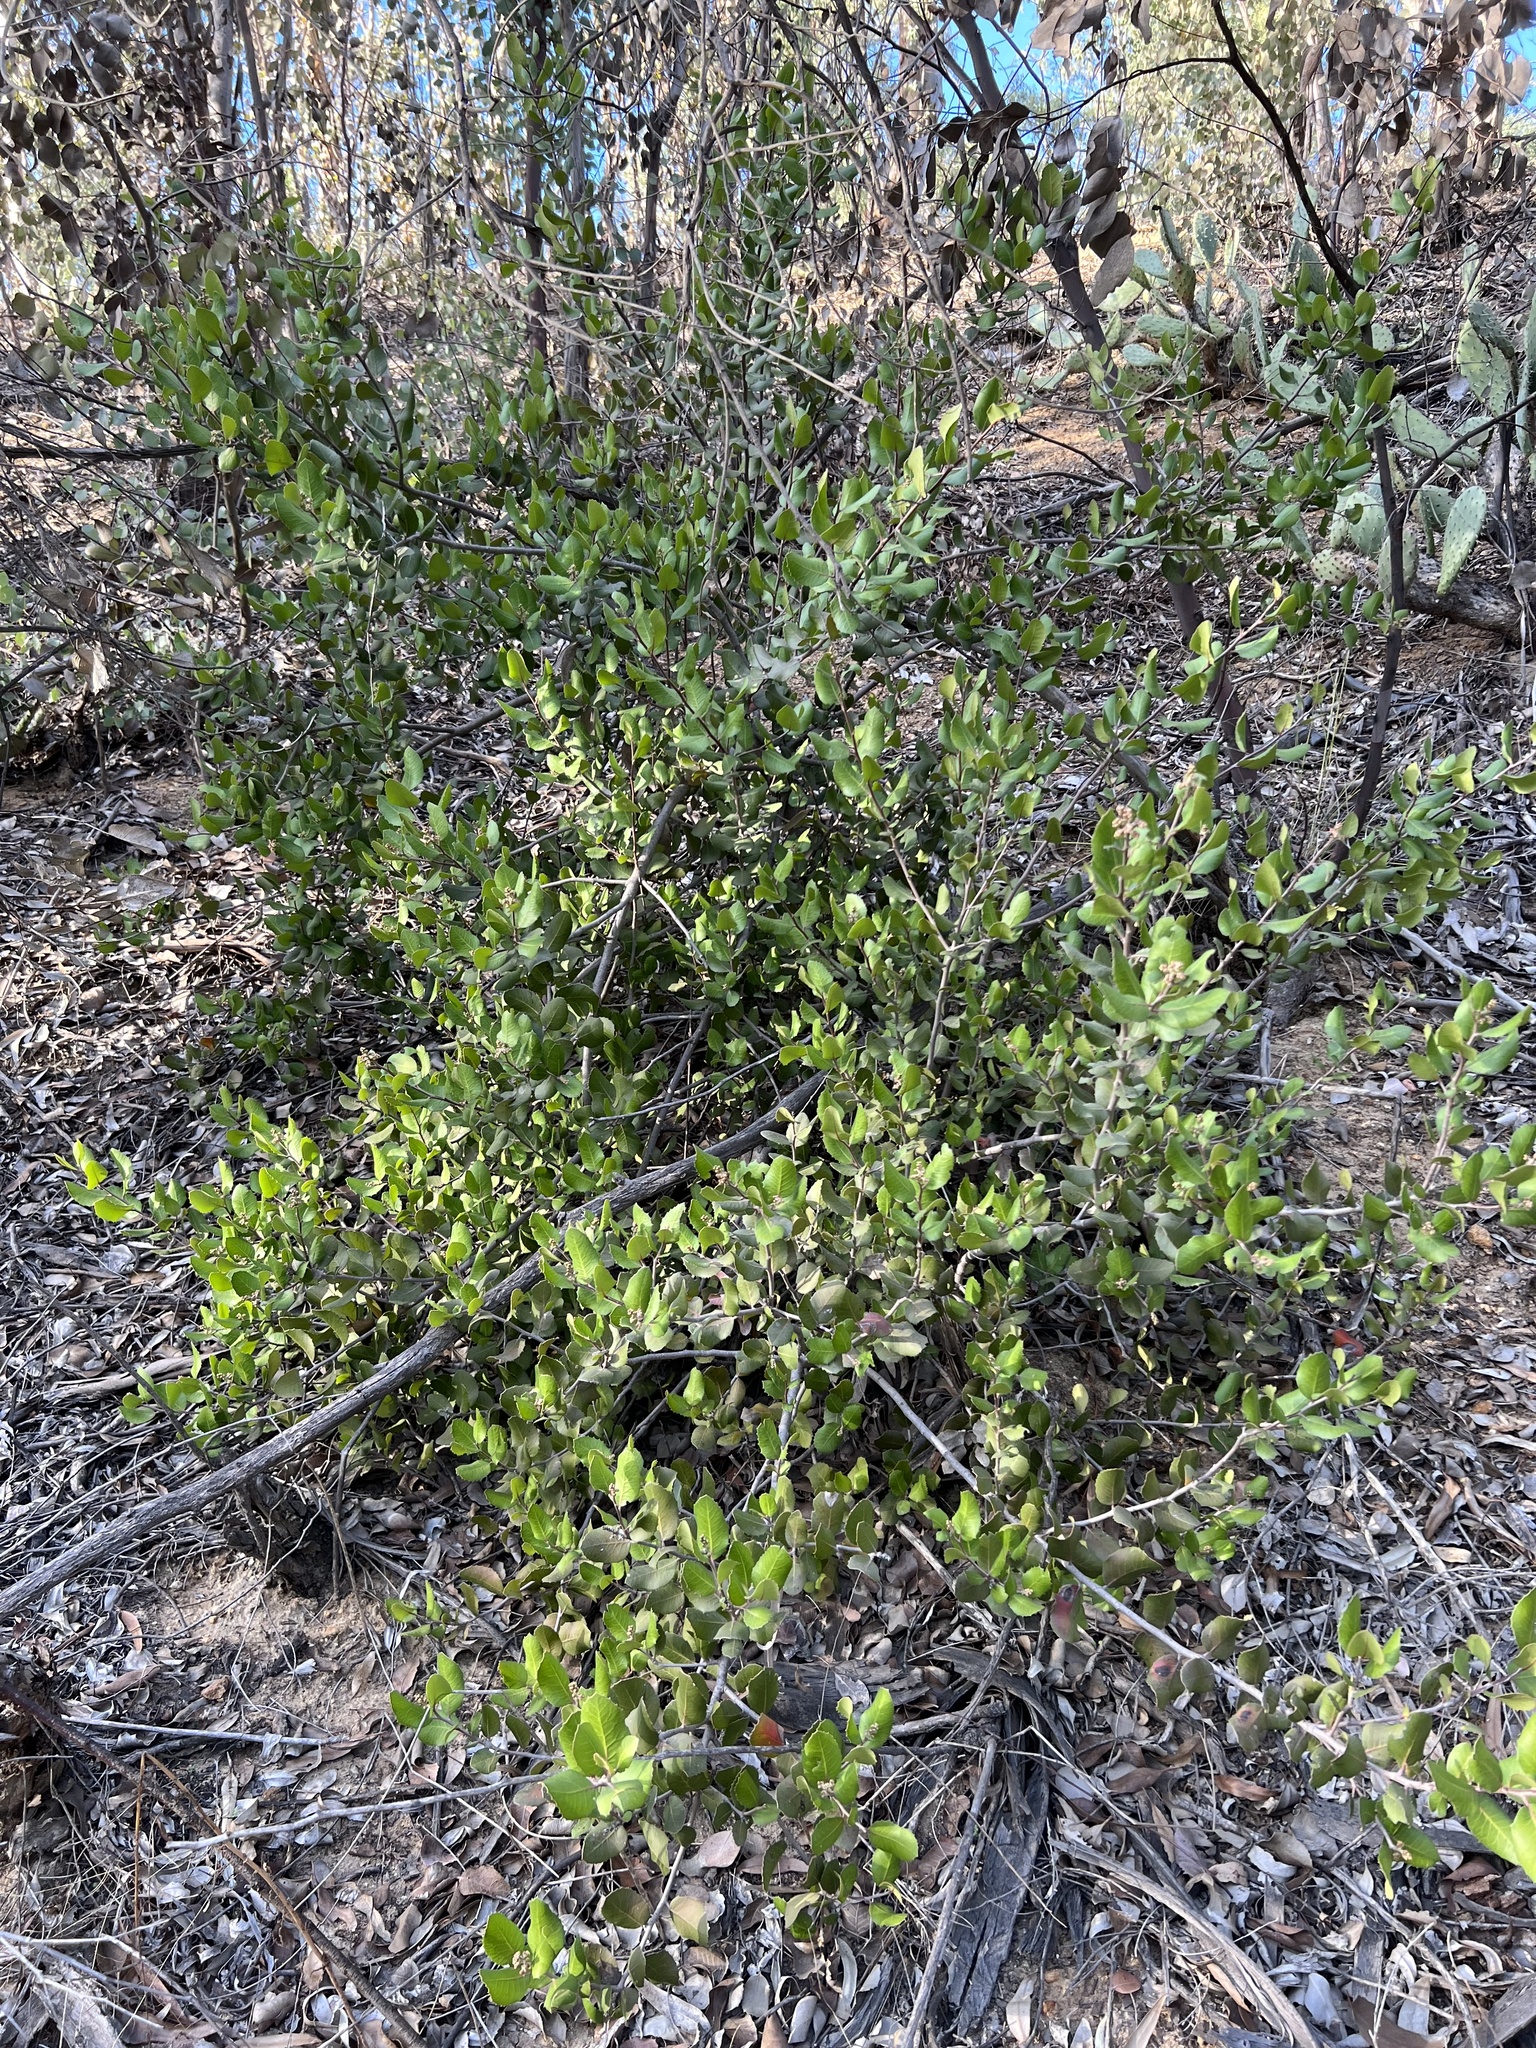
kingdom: Plantae
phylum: Tracheophyta
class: Magnoliopsida
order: Sapindales
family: Anacardiaceae
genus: Rhus
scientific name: Rhus integrifolia
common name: Lemonade sumac
